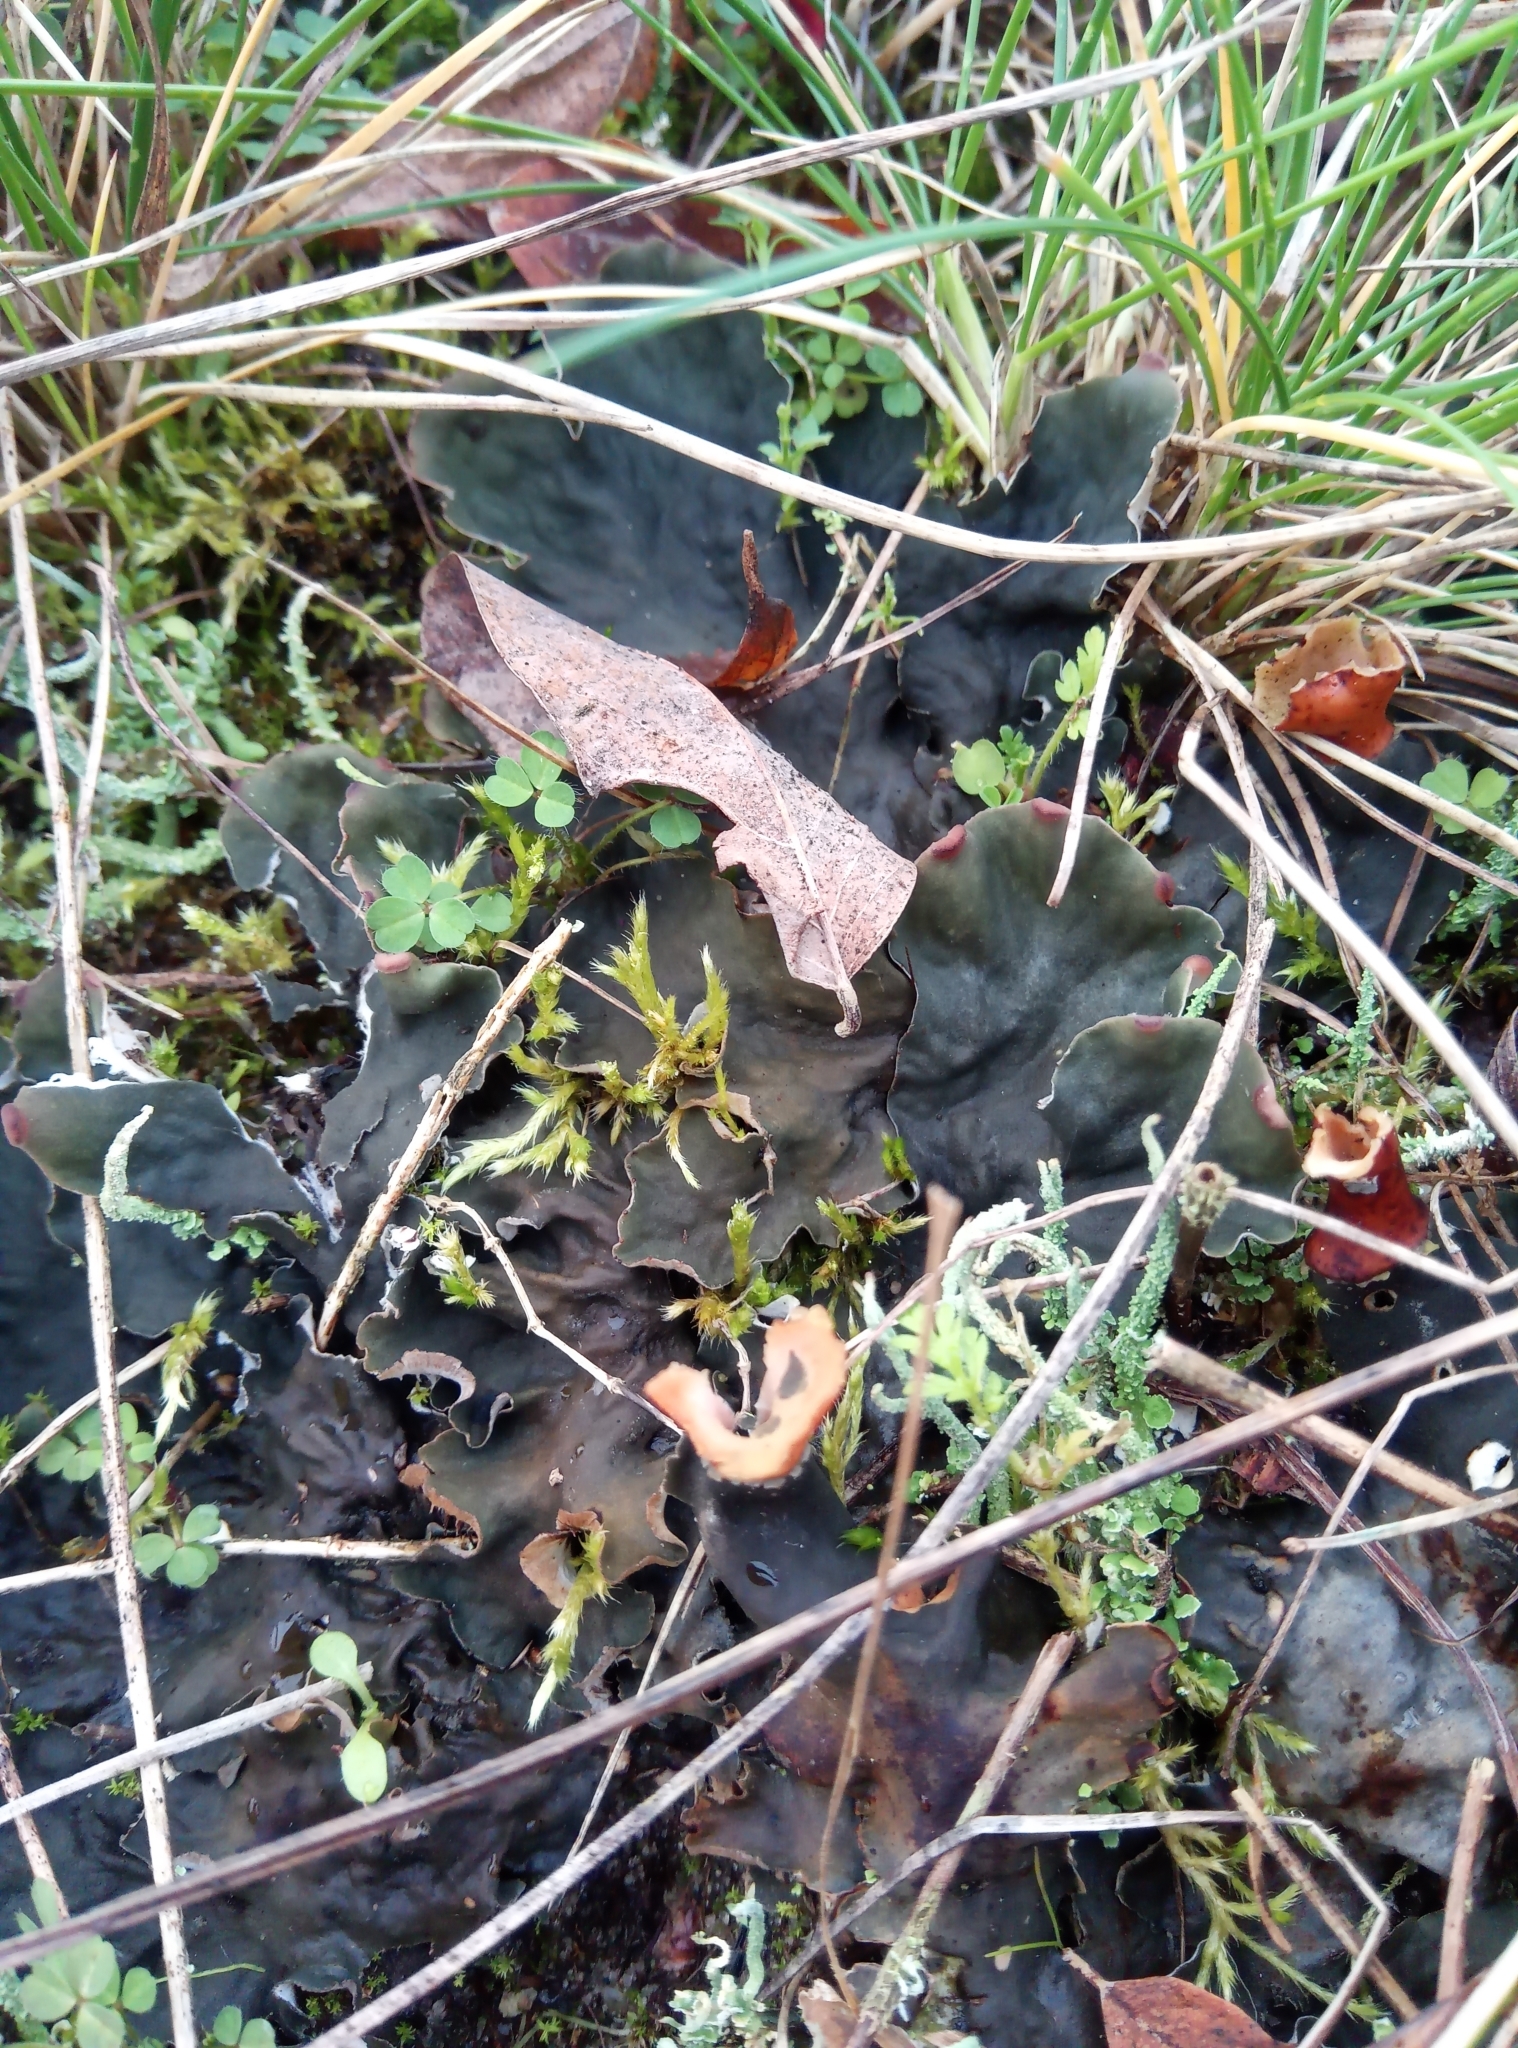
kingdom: Fungi
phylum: Ascomycota
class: Lecanoromycetes
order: Peltigerales
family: Peltigeraceae
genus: Peltigera
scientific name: Peltigera praetextata
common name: Scaly dog-lichen
